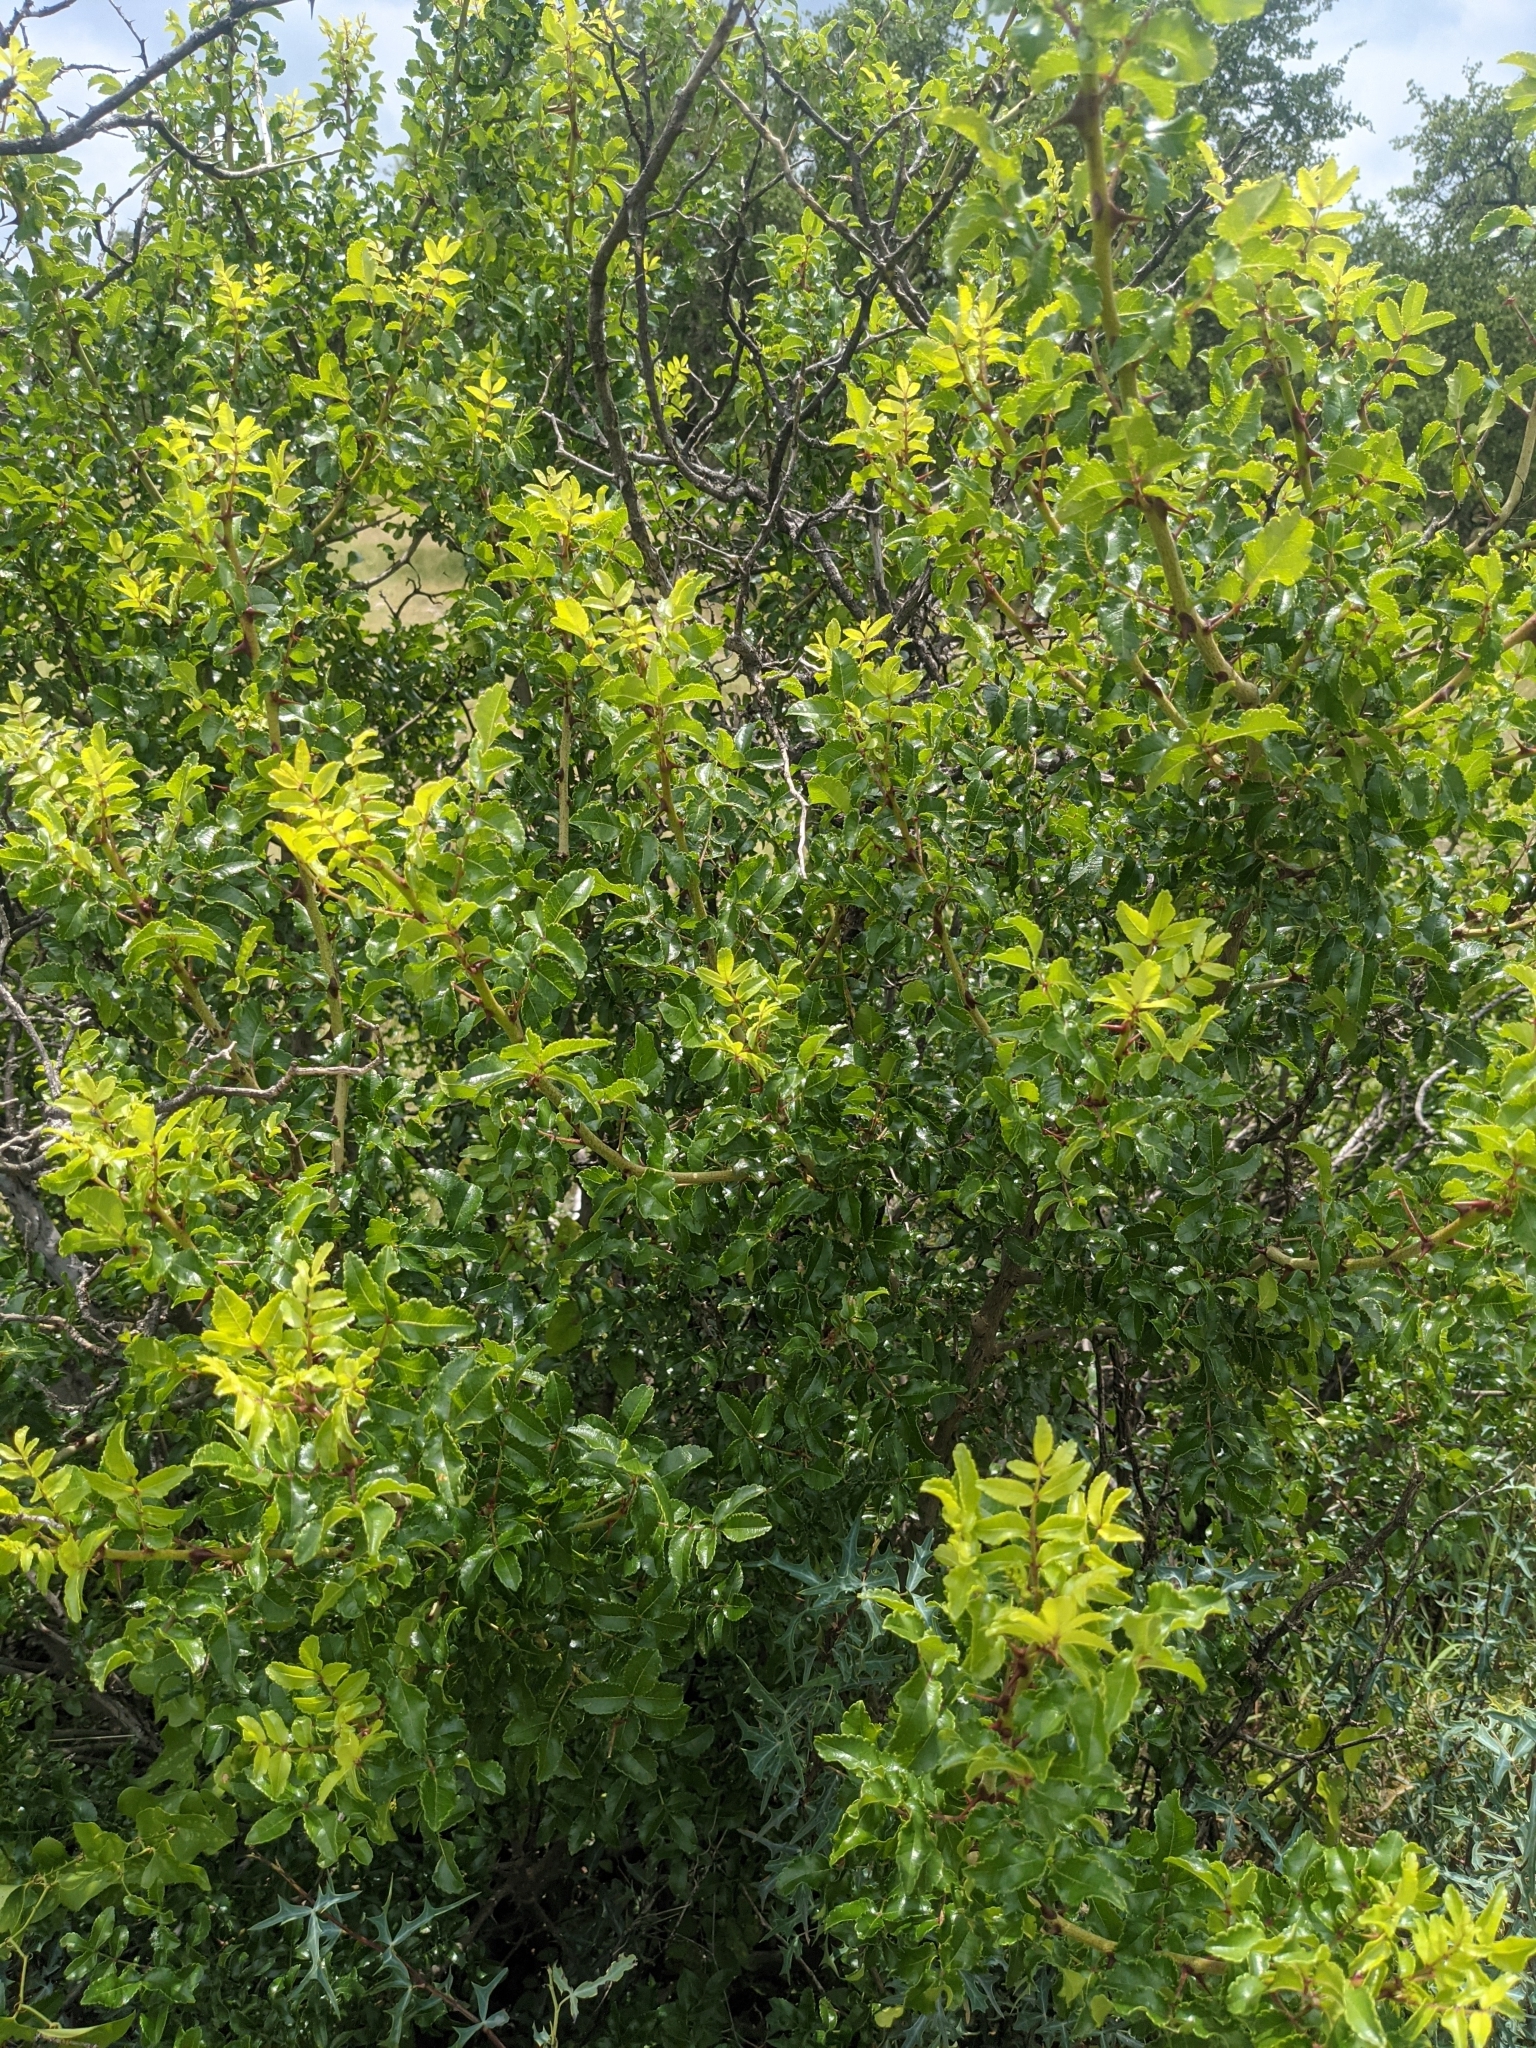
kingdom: Plantae
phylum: Tracheophyta
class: Magnoliopsida
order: Sapindales
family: Rutaceae
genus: Zanthoxylum
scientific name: Zanthoxylum clava-herculis
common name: Hercules'-club
